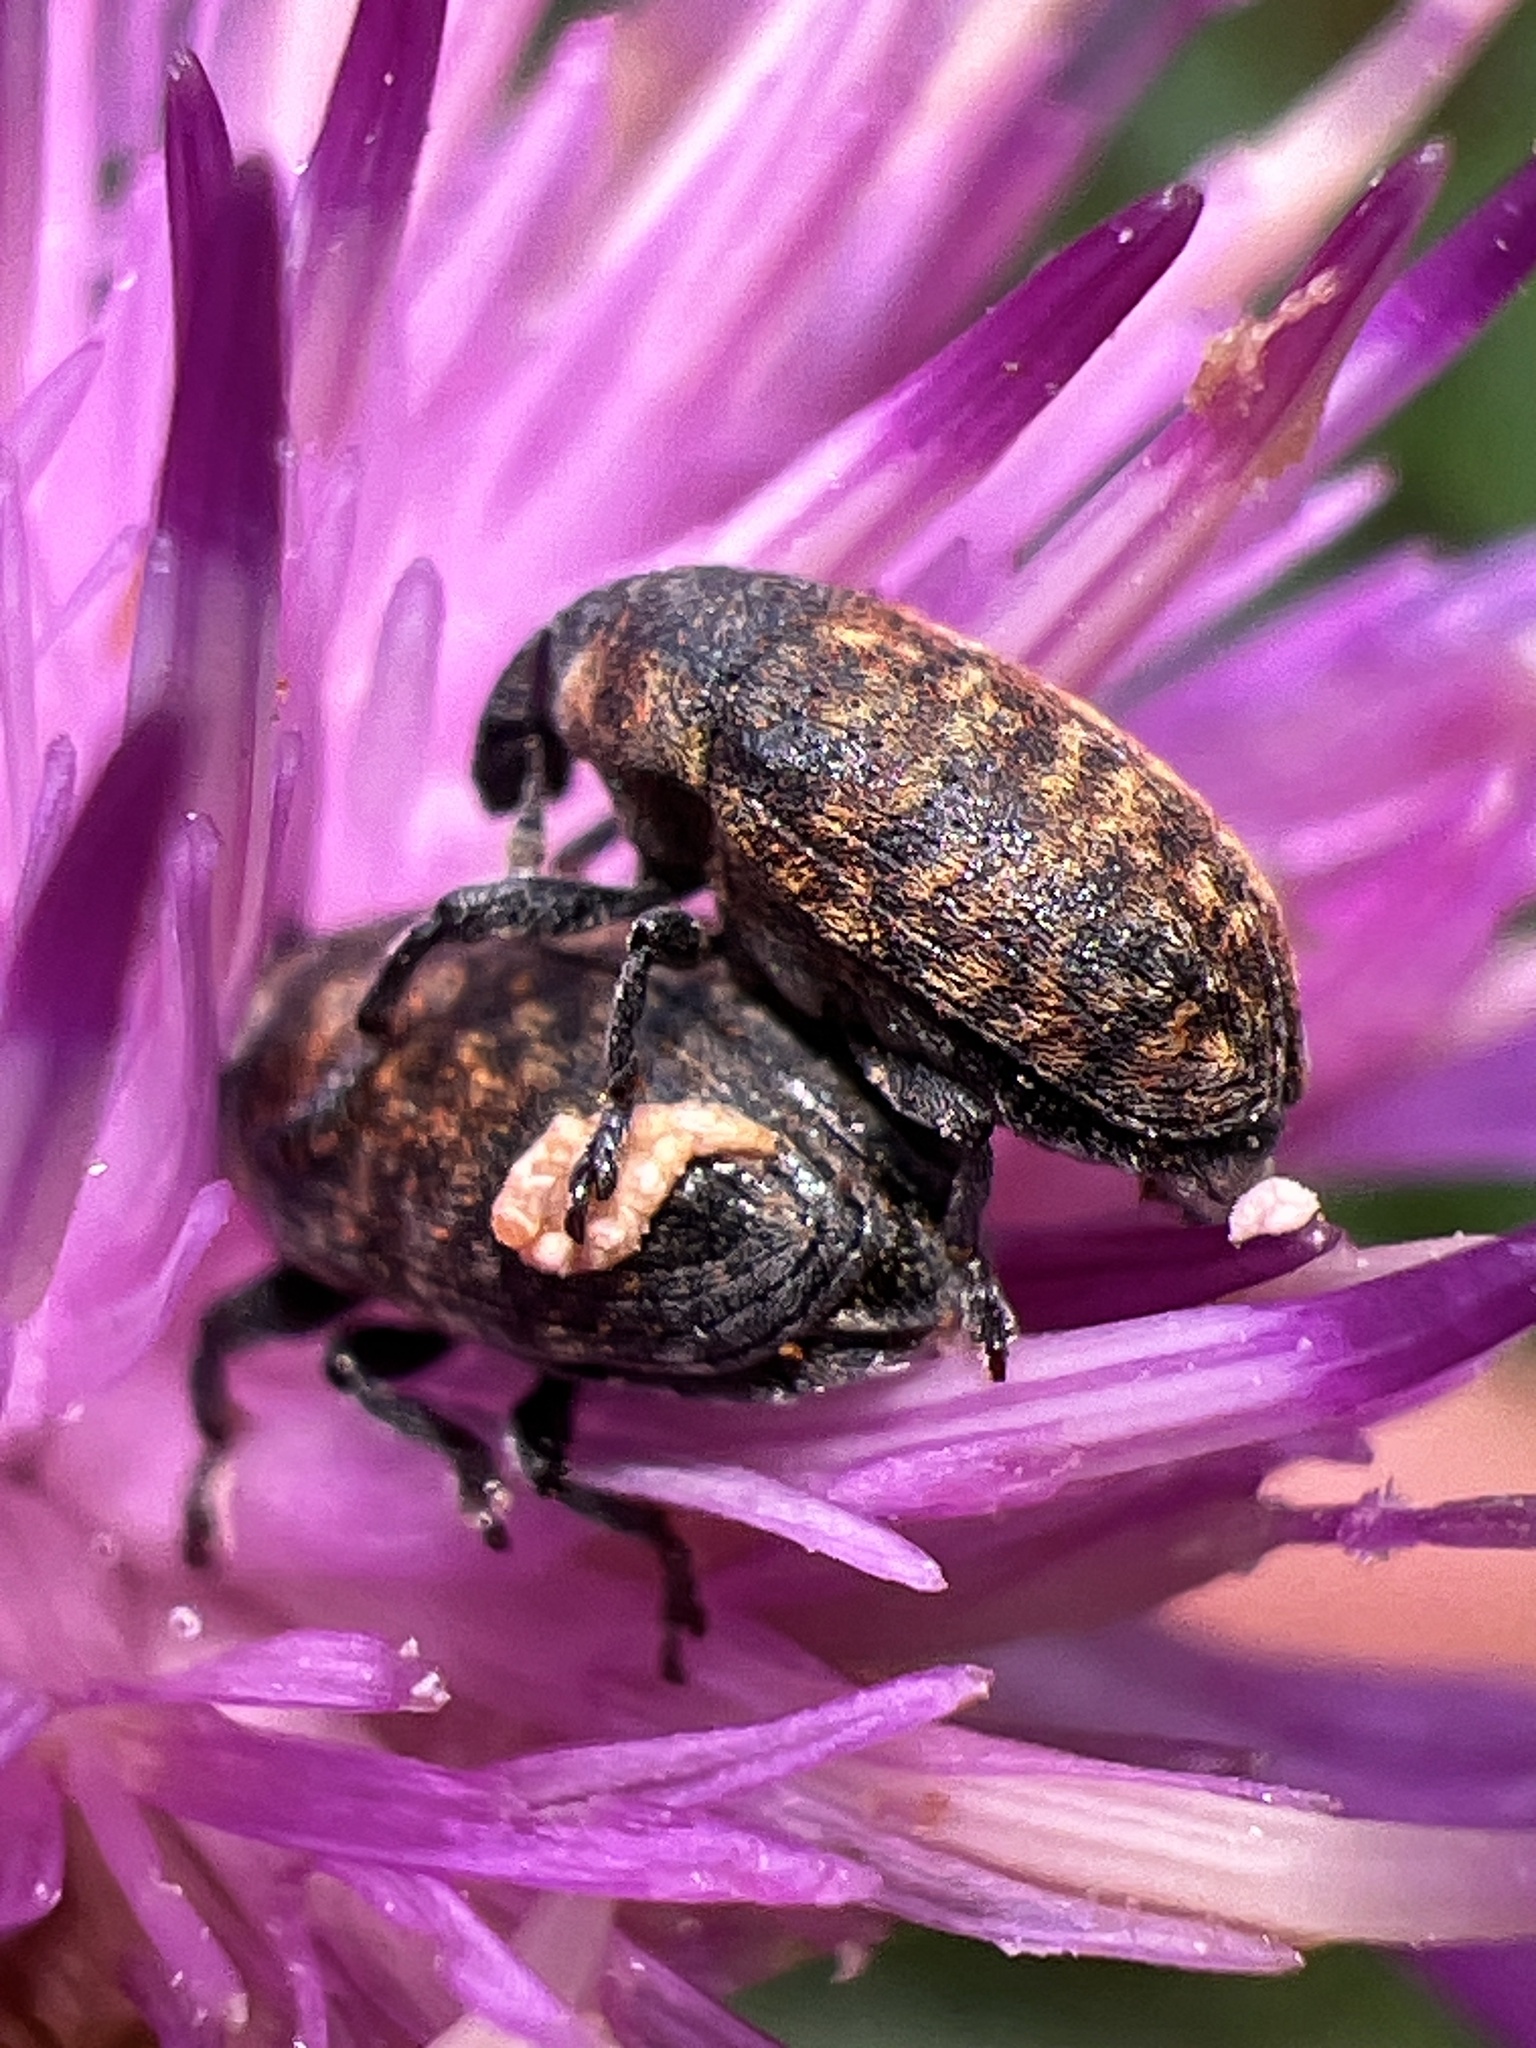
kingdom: Animalia
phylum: Arthropoda
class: Insecta
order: Coleoptera
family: Curculionidae
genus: Larinus
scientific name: Larinus obtusus
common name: Weevil
